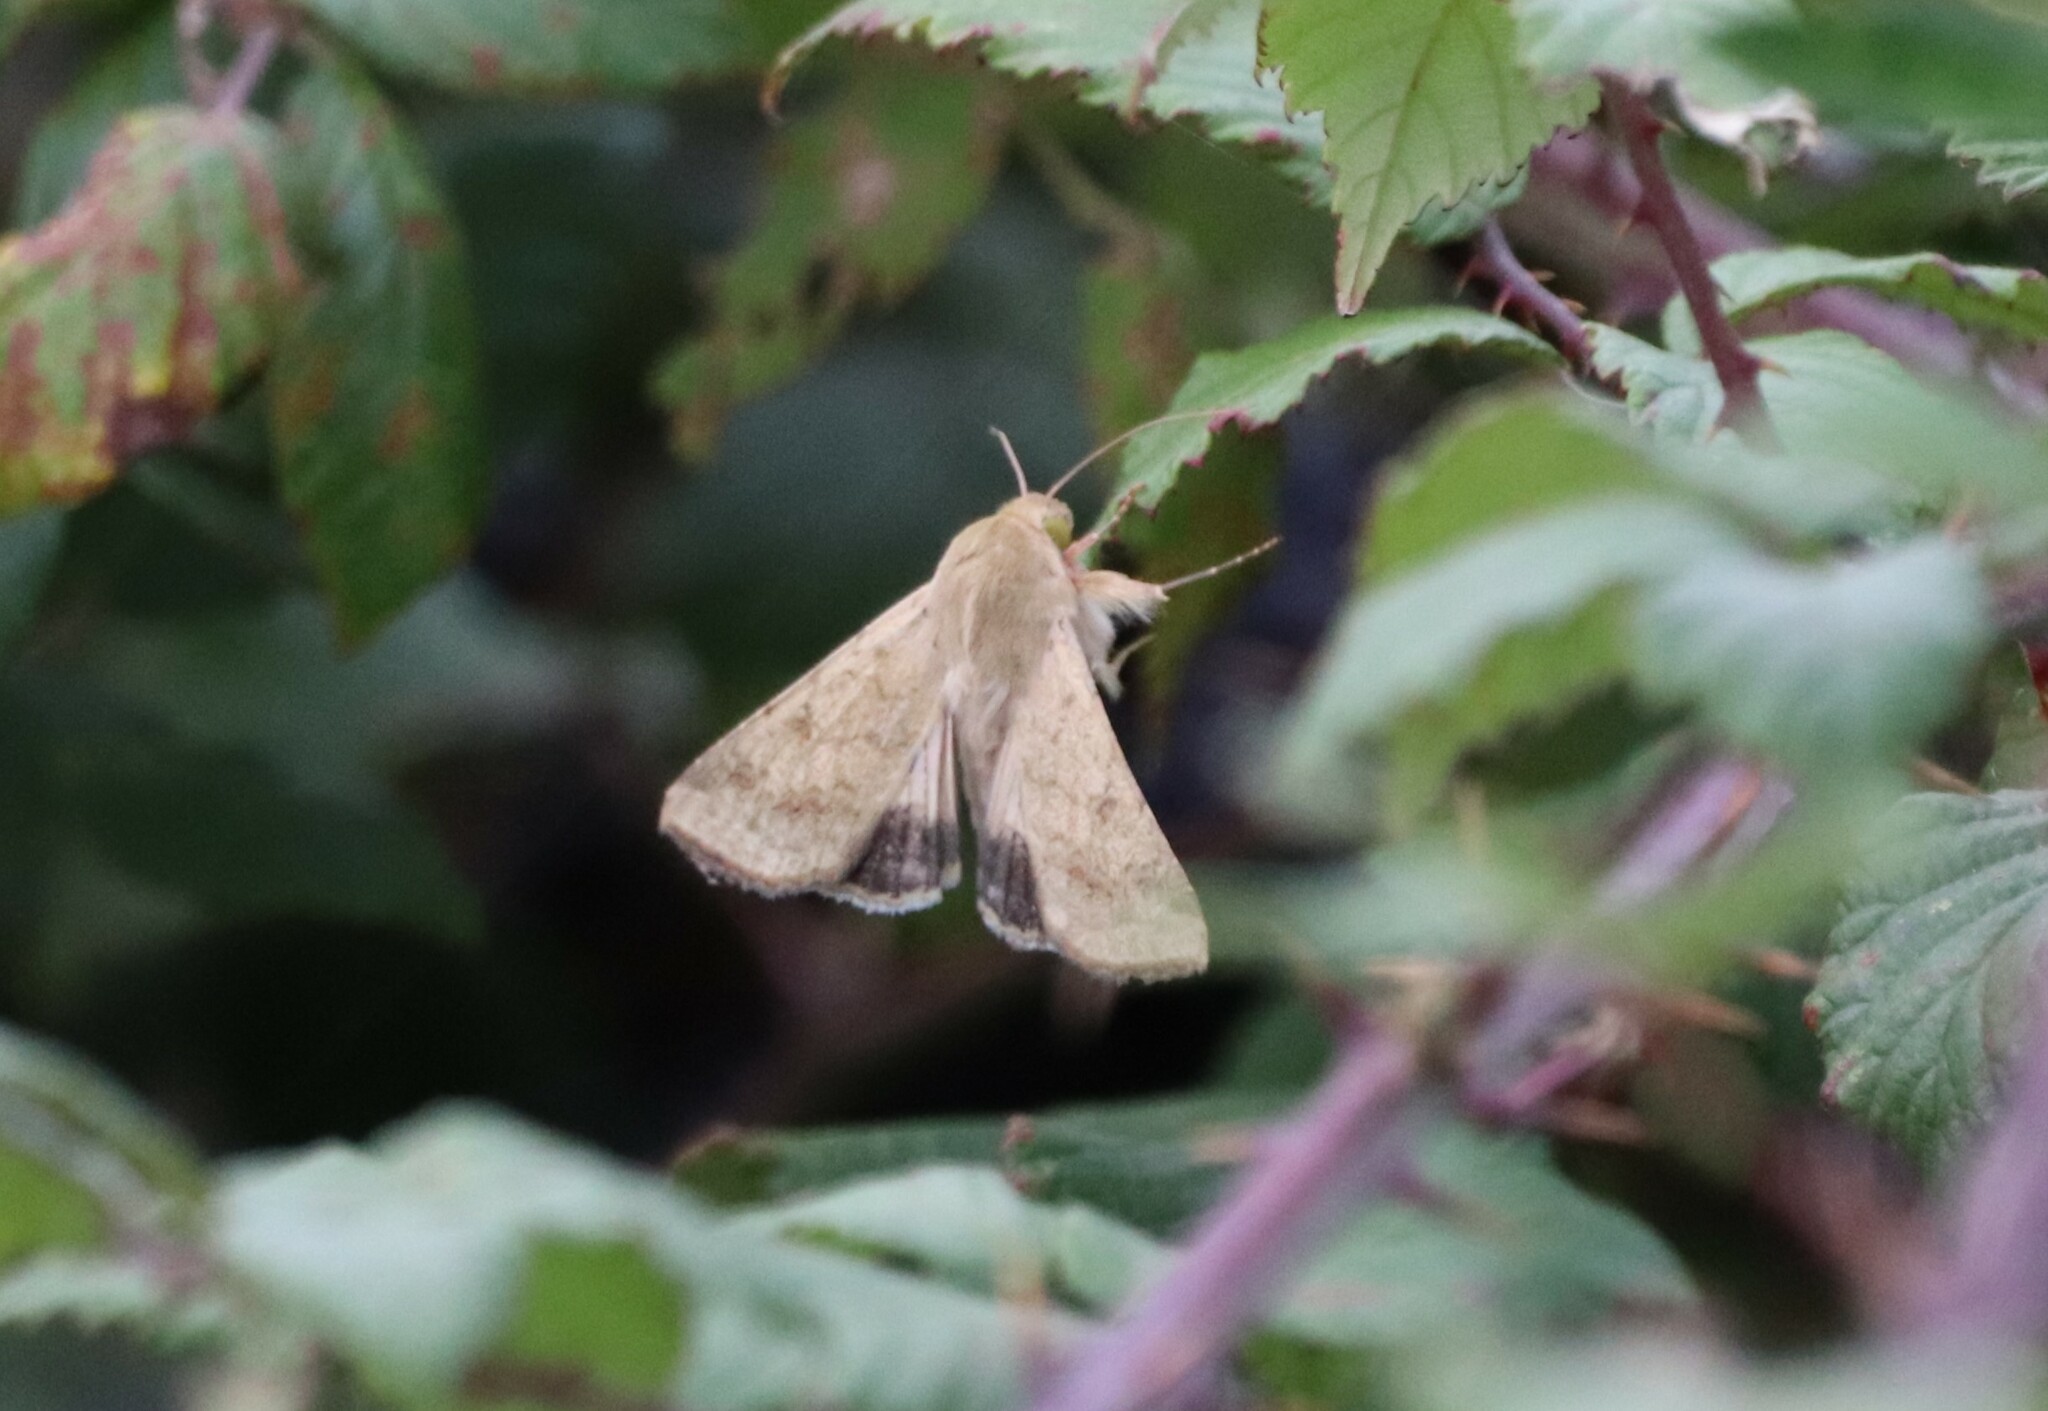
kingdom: Animalia
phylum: Arthropoda
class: Insecta
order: Lepidoptera
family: Noctuidae
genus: Helicoverpa
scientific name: Helicoverpa armigera
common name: Cotton bollworm
